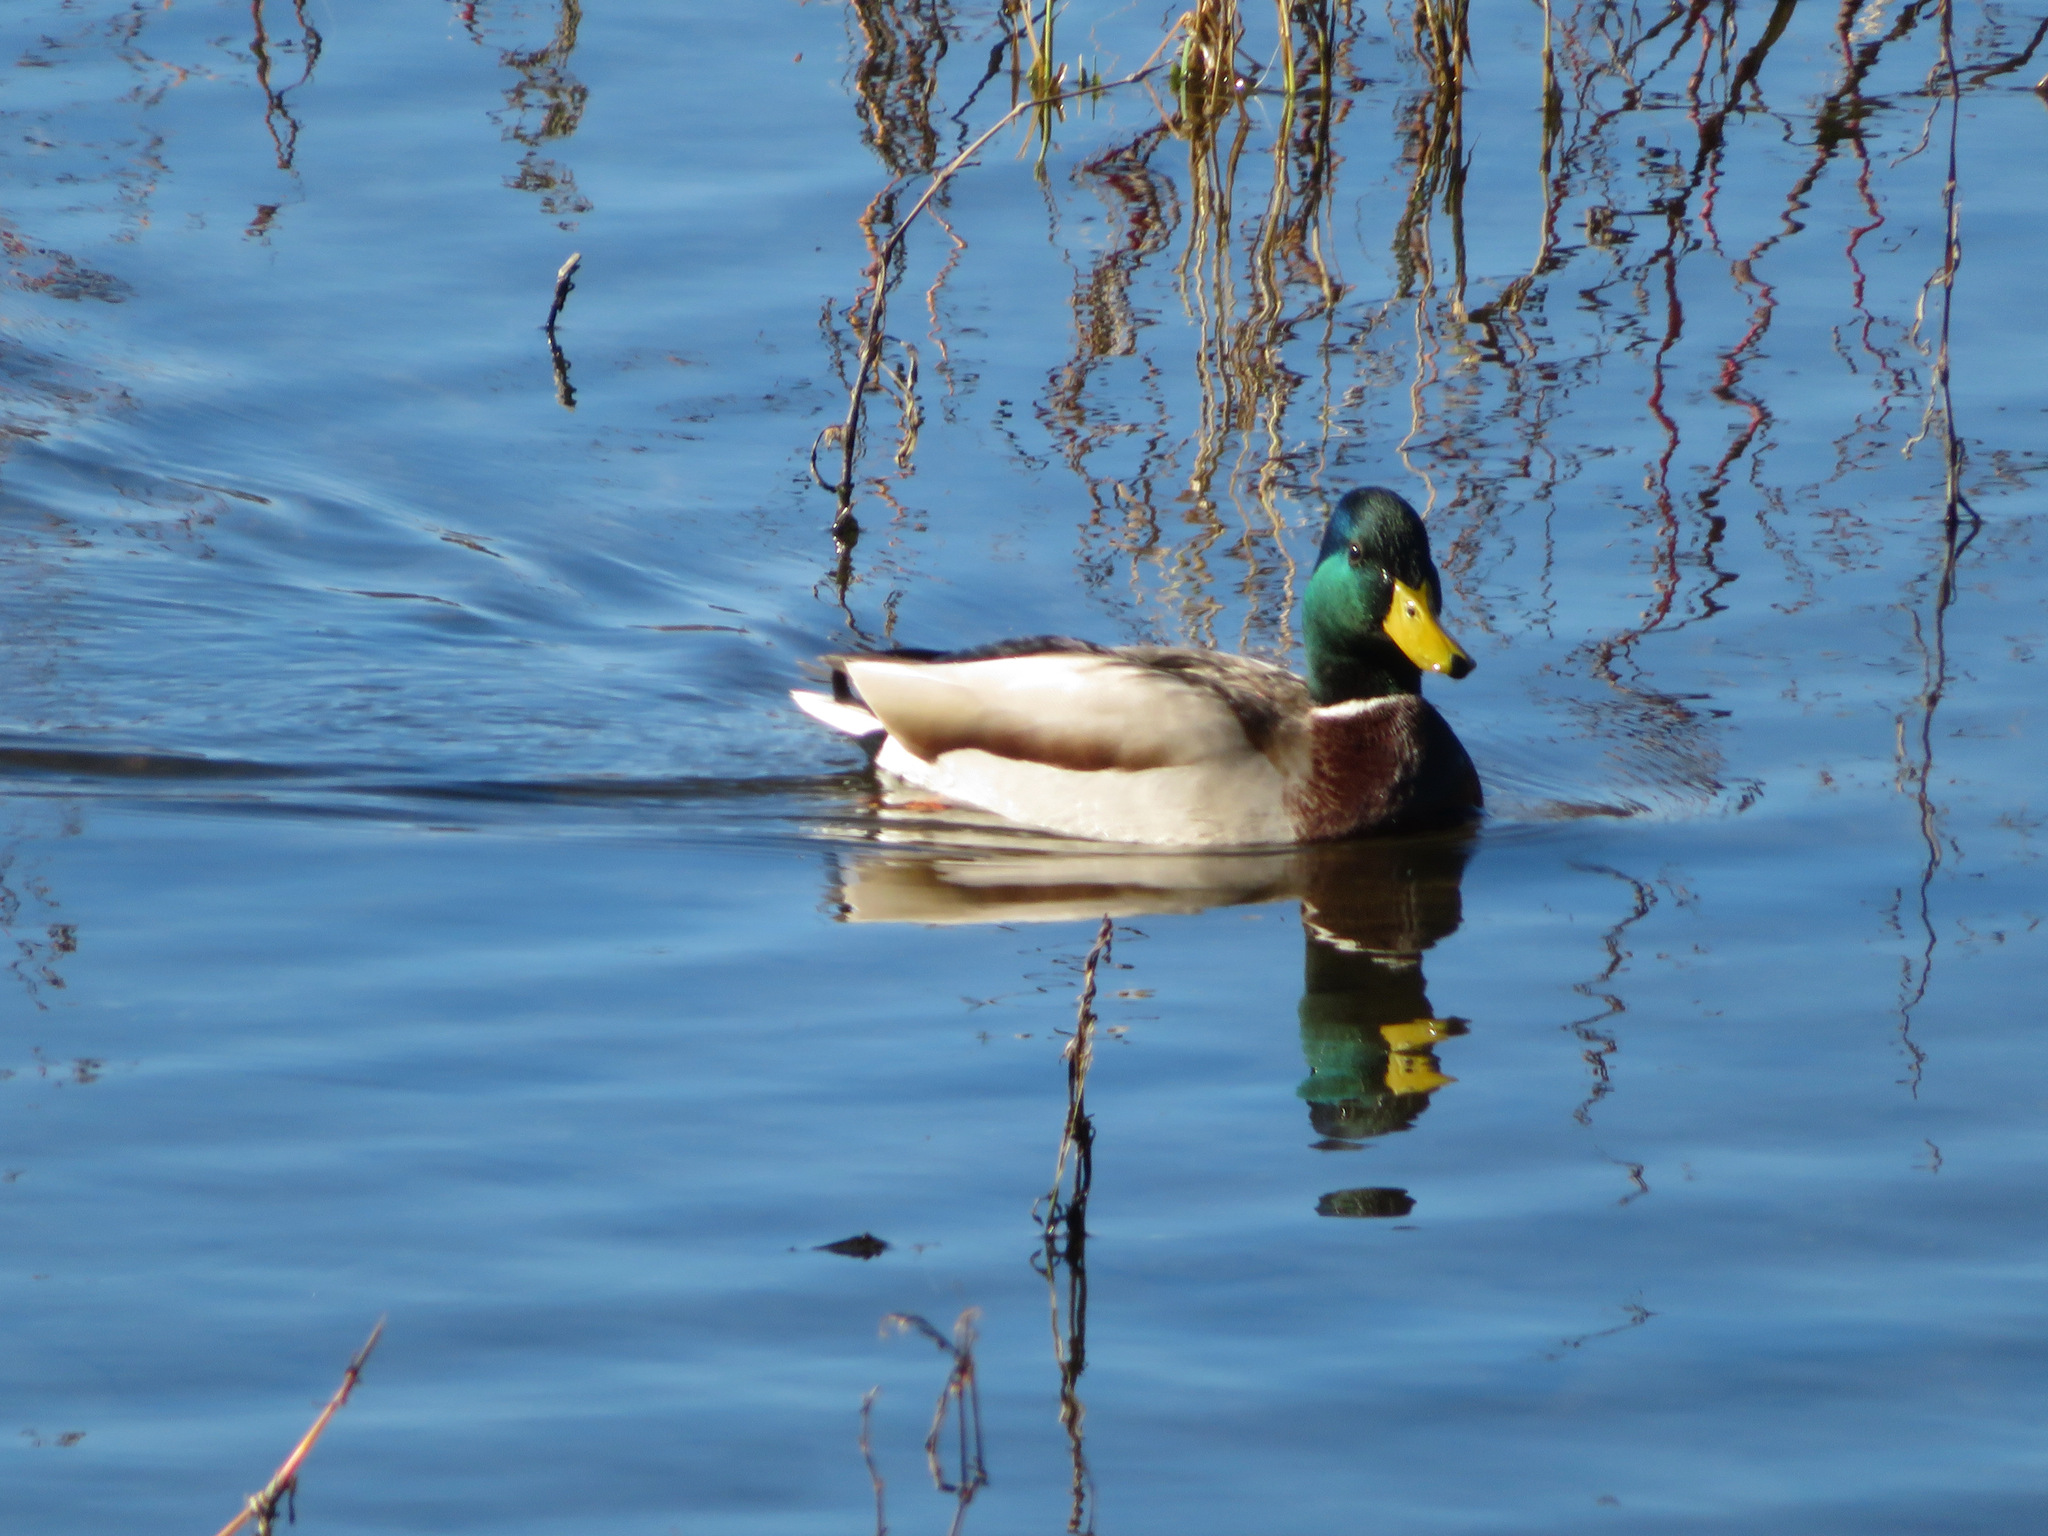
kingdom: Animalia
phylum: Chordata
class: Aves
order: Anseriformes
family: Anatidae
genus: Anas
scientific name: Anas platyrhynchos
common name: Mallard
